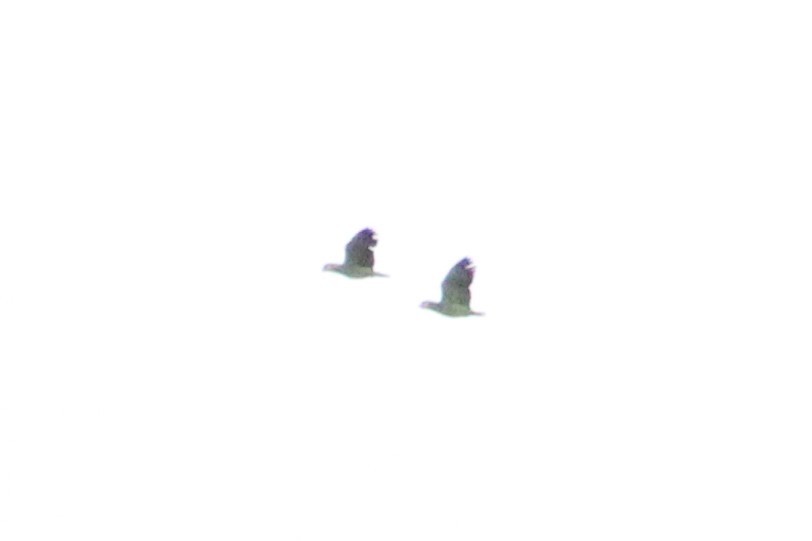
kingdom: Animalia
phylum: Chordata
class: Aves
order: Psittaciformes
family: Psittacidae
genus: Amazona
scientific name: Amazona amazonica
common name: Orange-winged amazon
